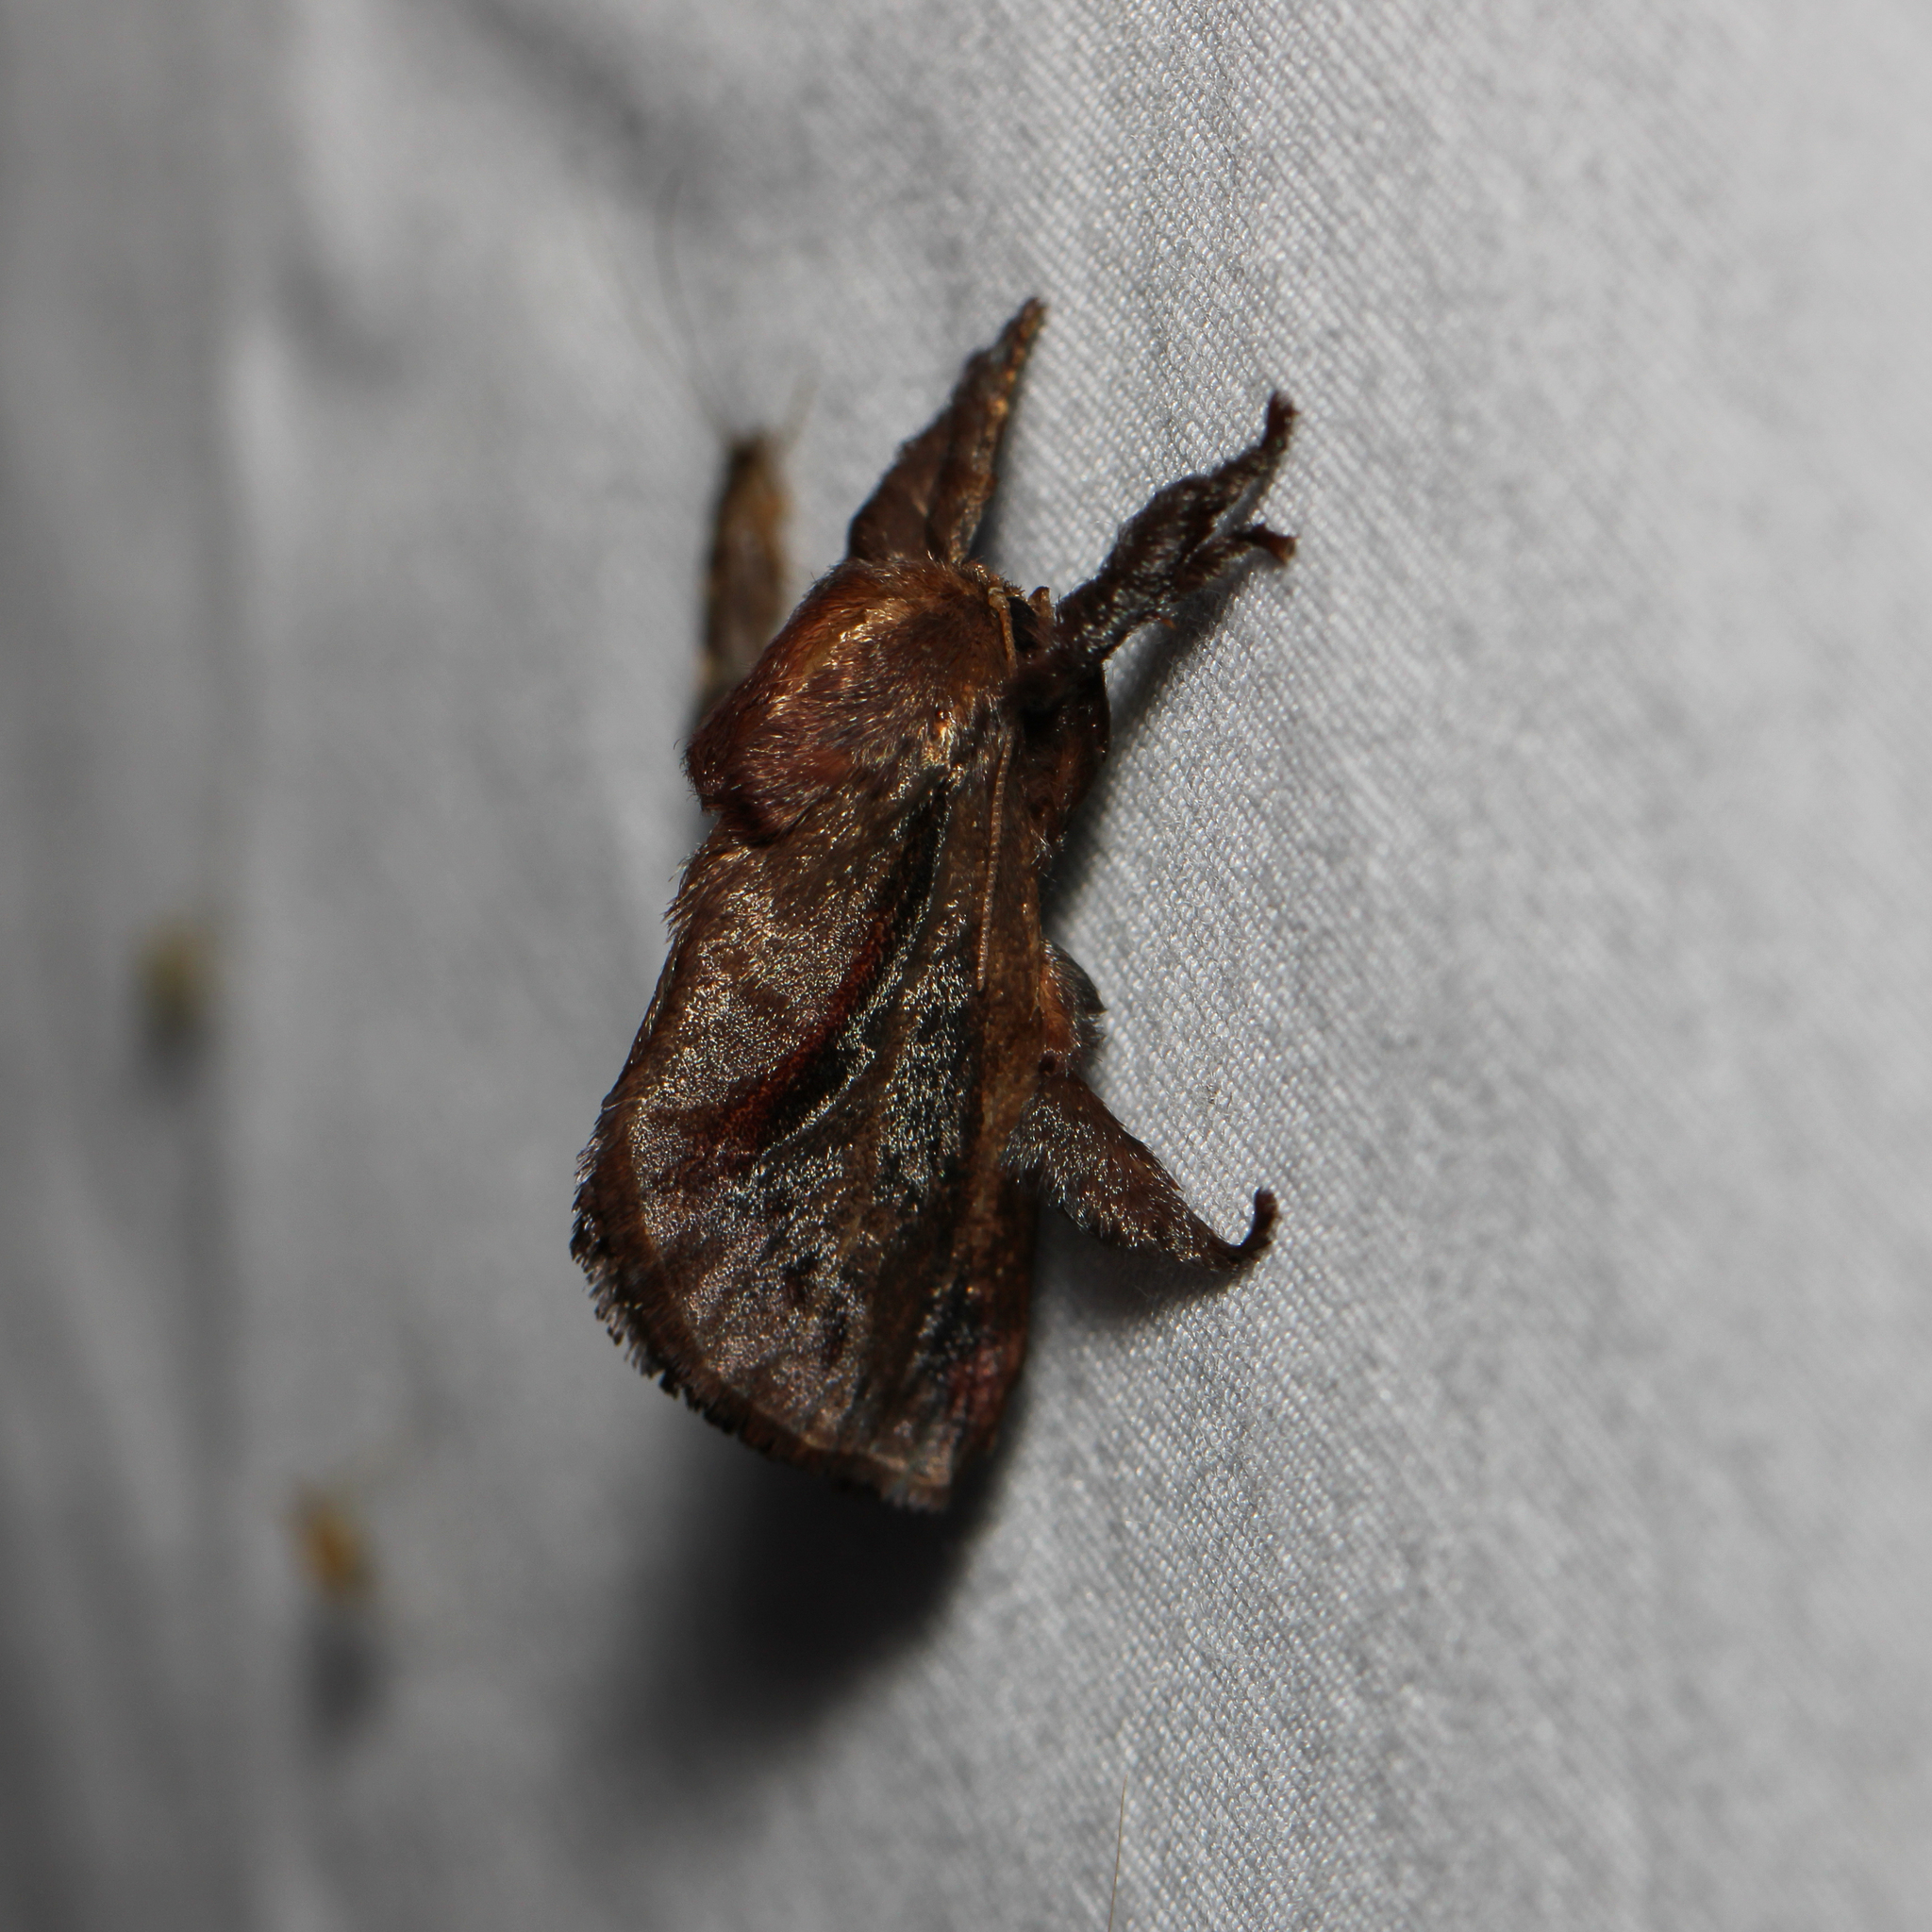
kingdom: Animalia
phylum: Arthropoda
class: Insecta
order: Lepidoptera
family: Limacodidae
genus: Acharia
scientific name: Acharia stimulea
